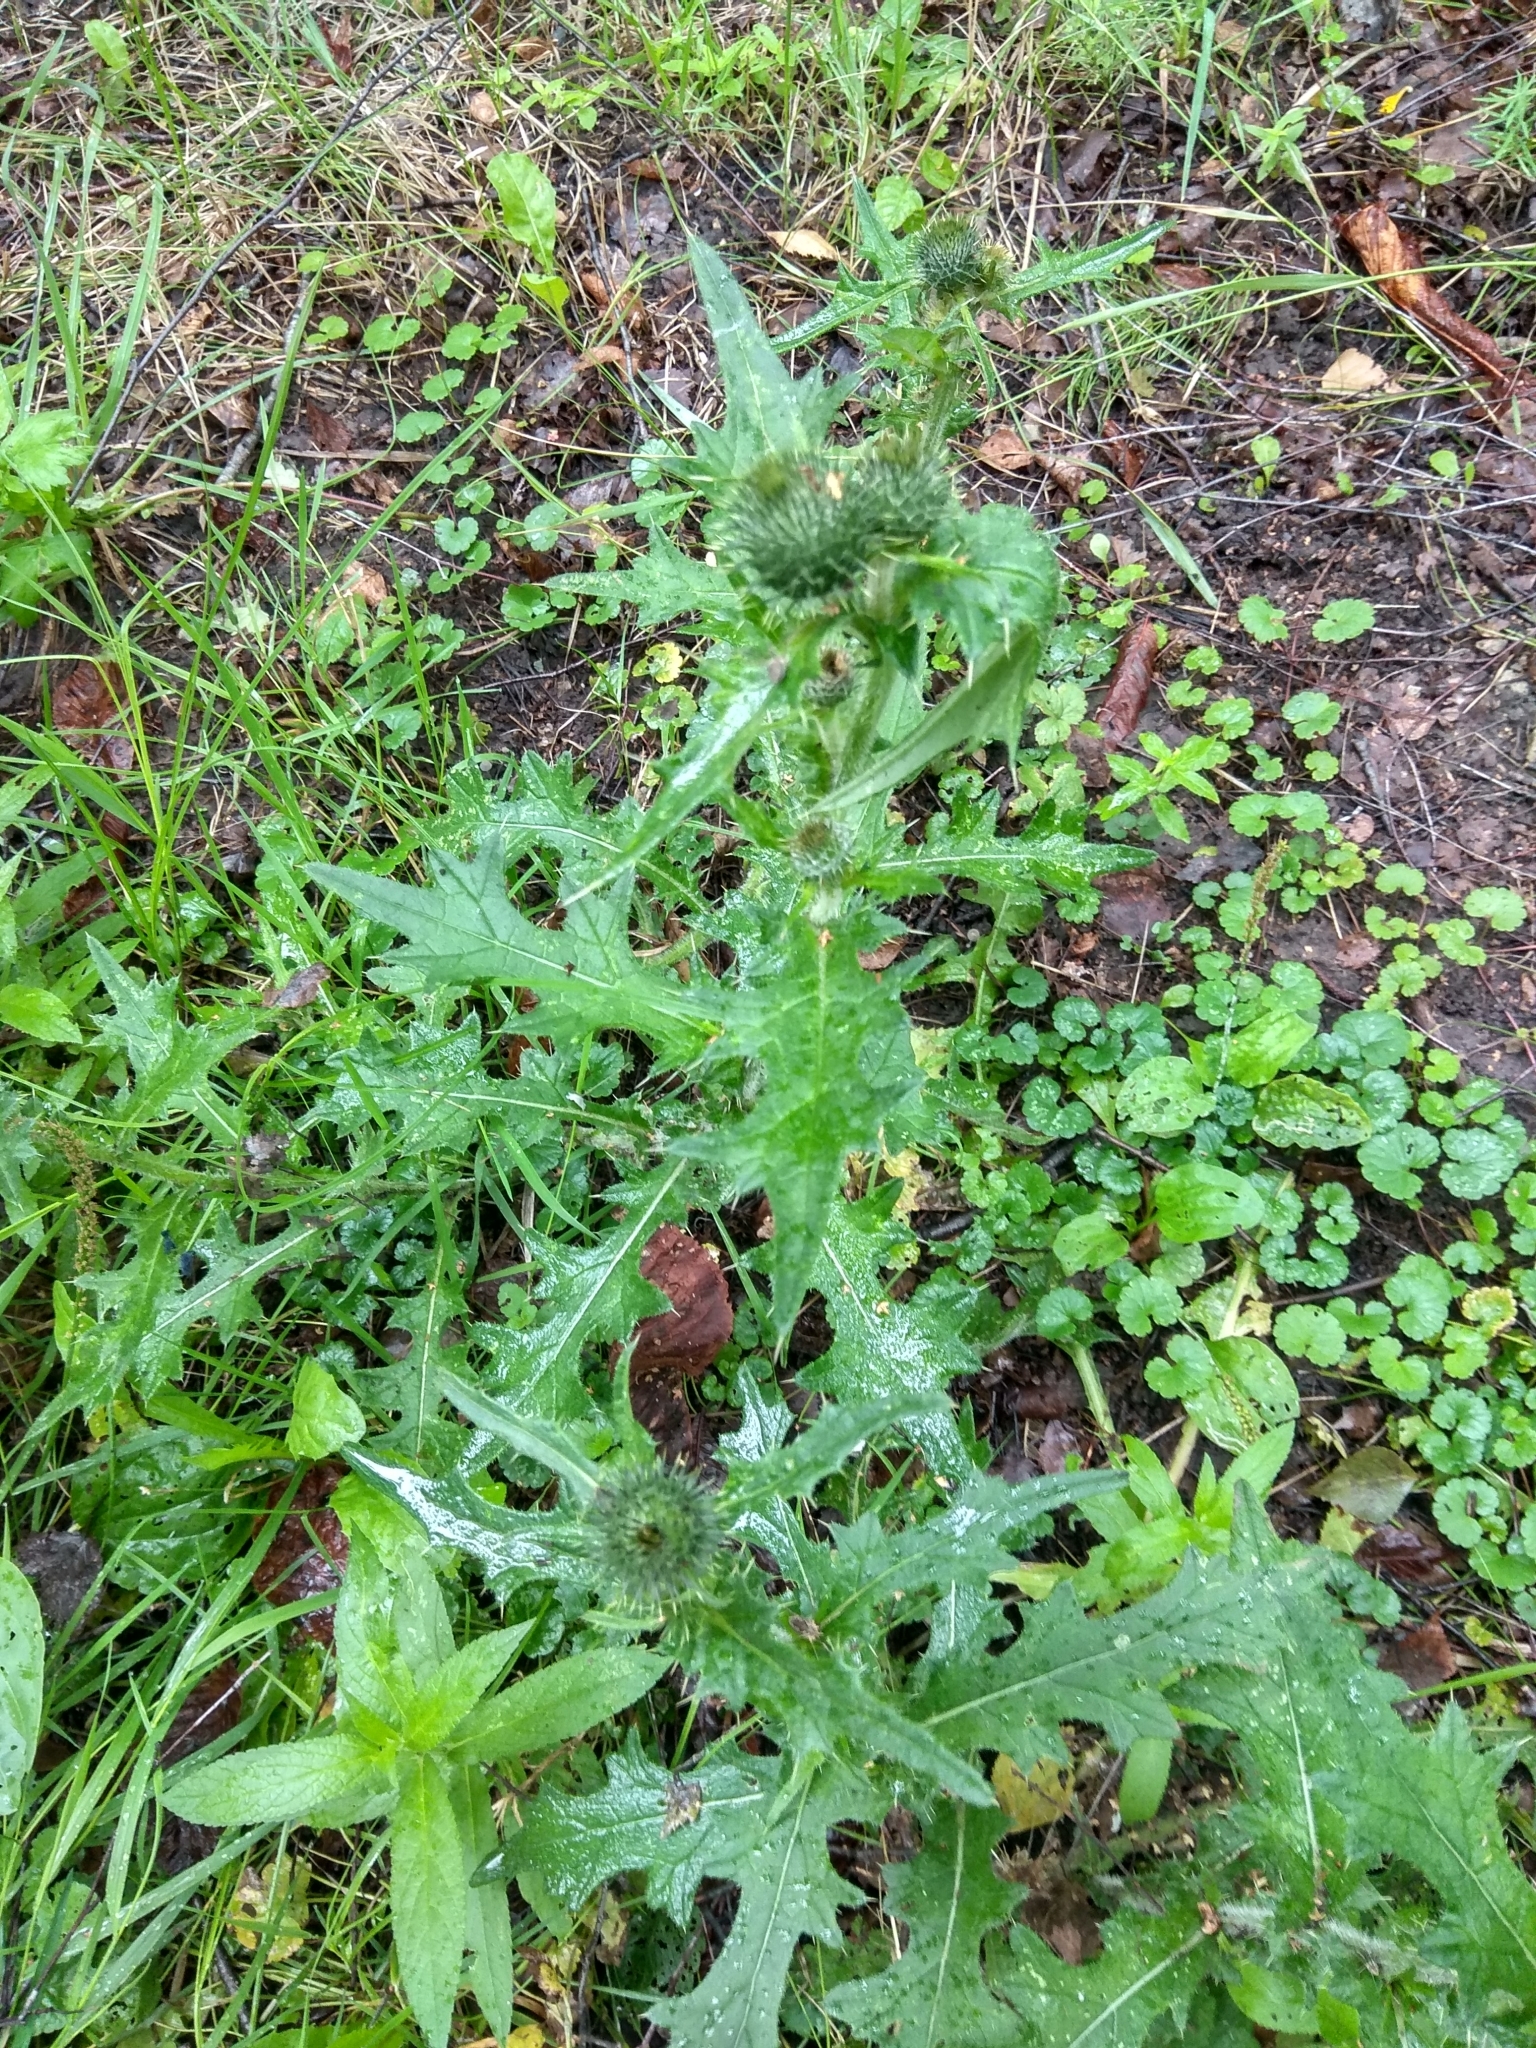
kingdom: Plantae
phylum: Tracheophyta
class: Magnoliopsida
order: Asterales
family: Asteraceae
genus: Cirsium
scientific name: Cirsium vulgare
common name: Bull thistle
